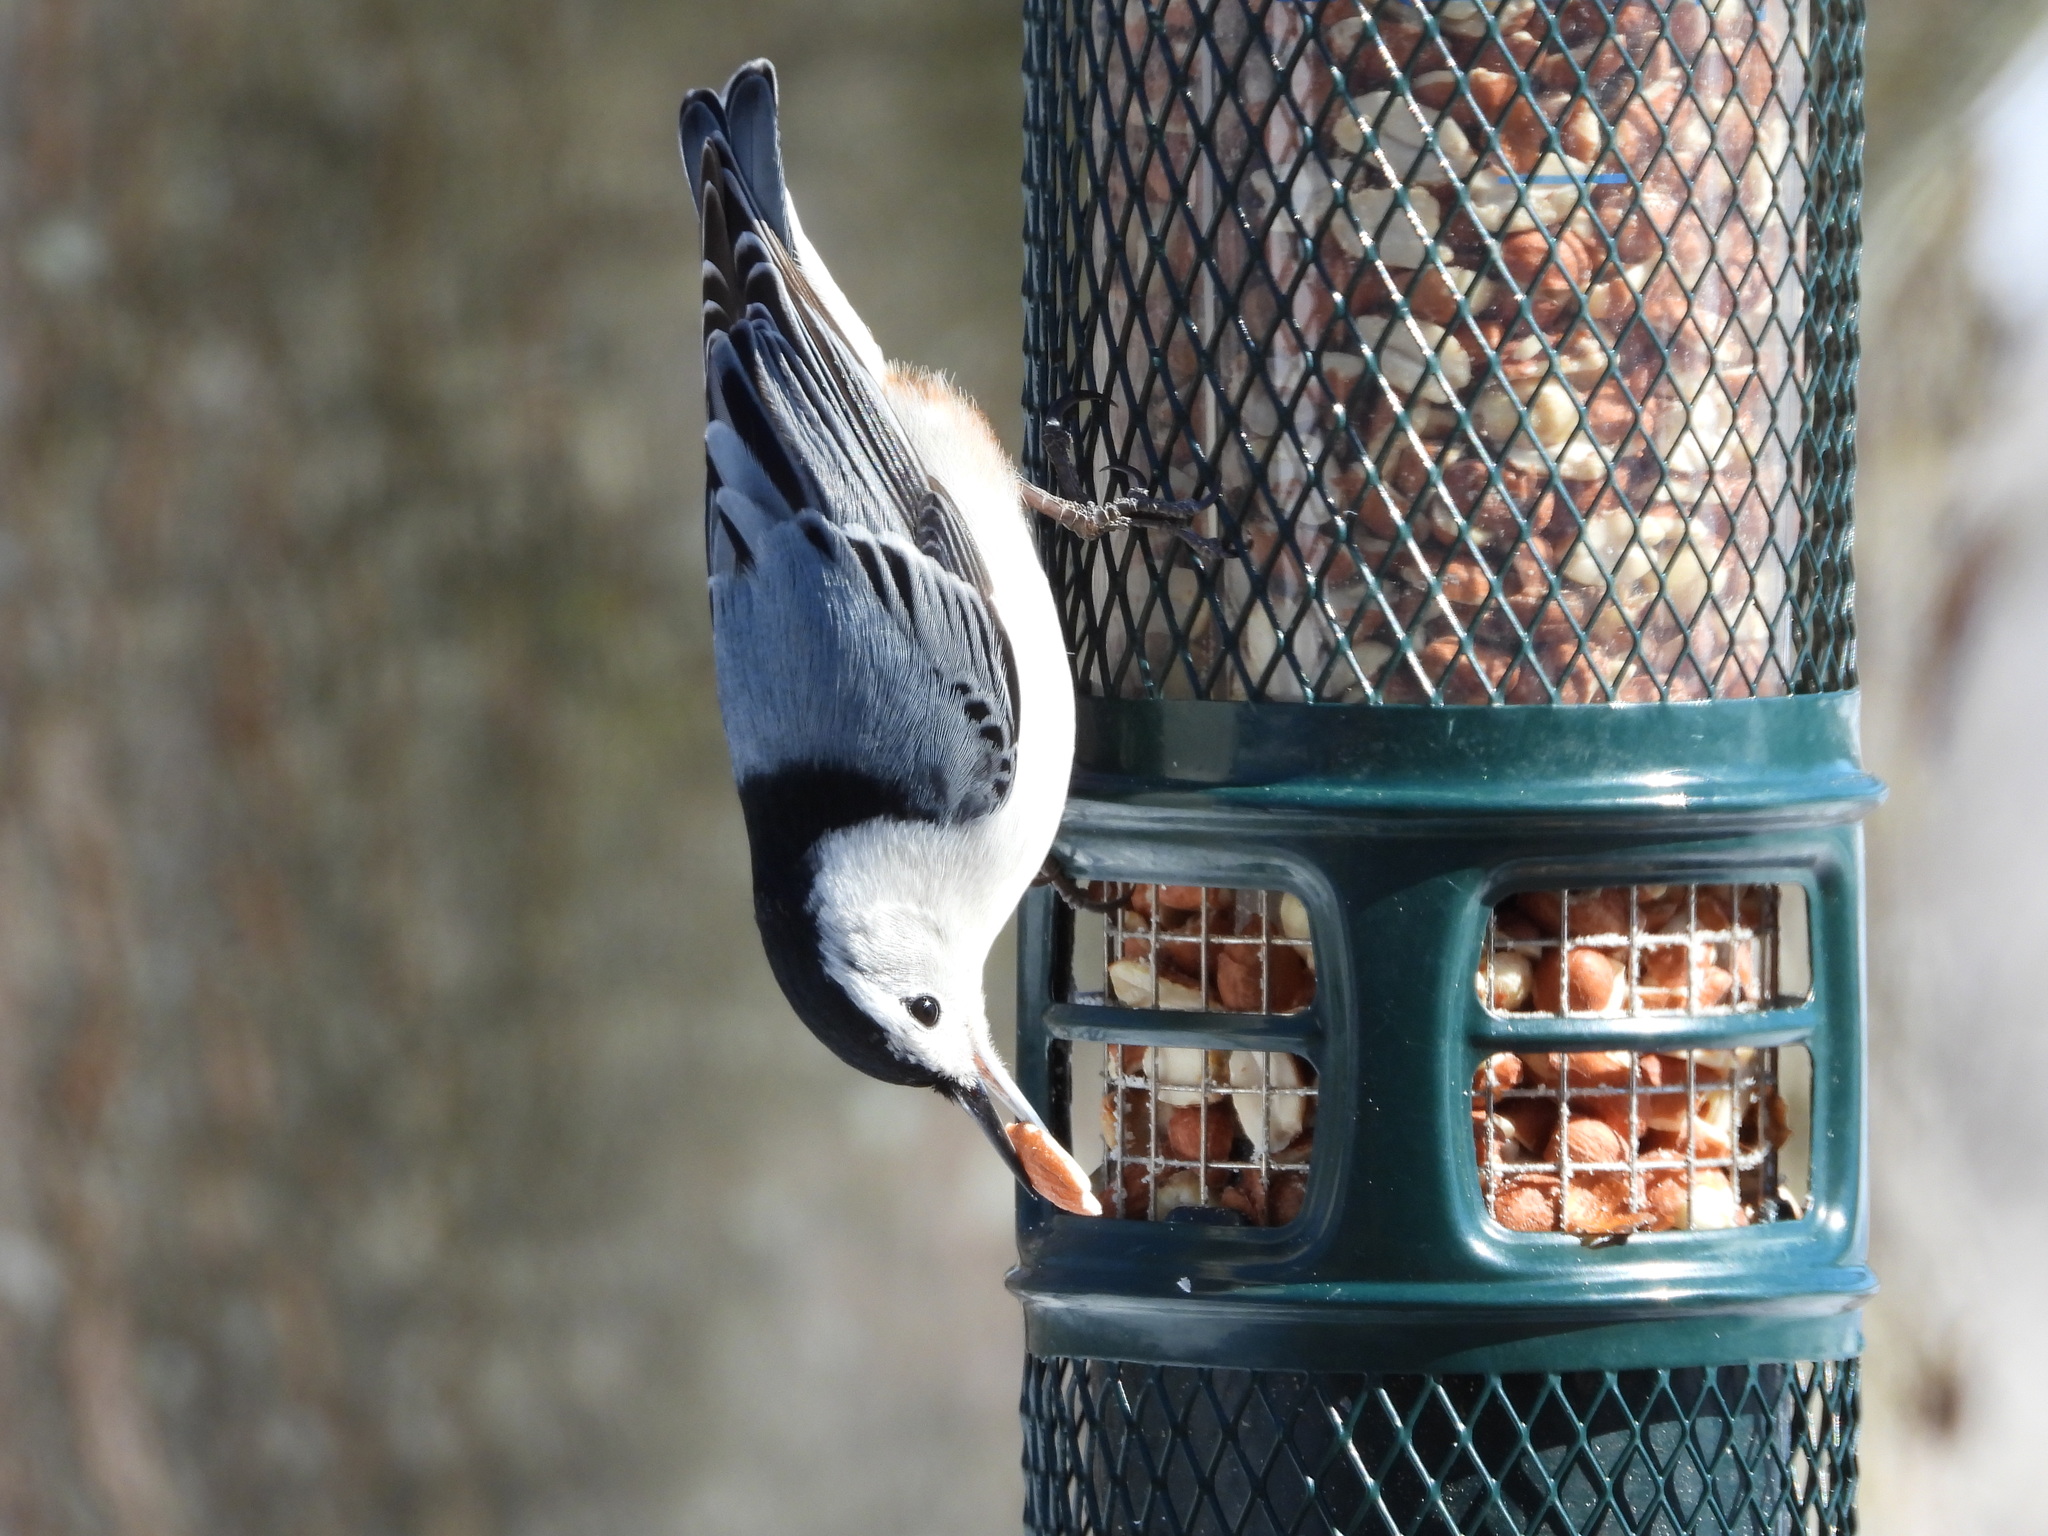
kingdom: Animalia
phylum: Chordata
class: Aves
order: Passeriformes
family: Sittidae
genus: Sitta
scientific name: Sitta carolinensis
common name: White-breasted nuthatch
